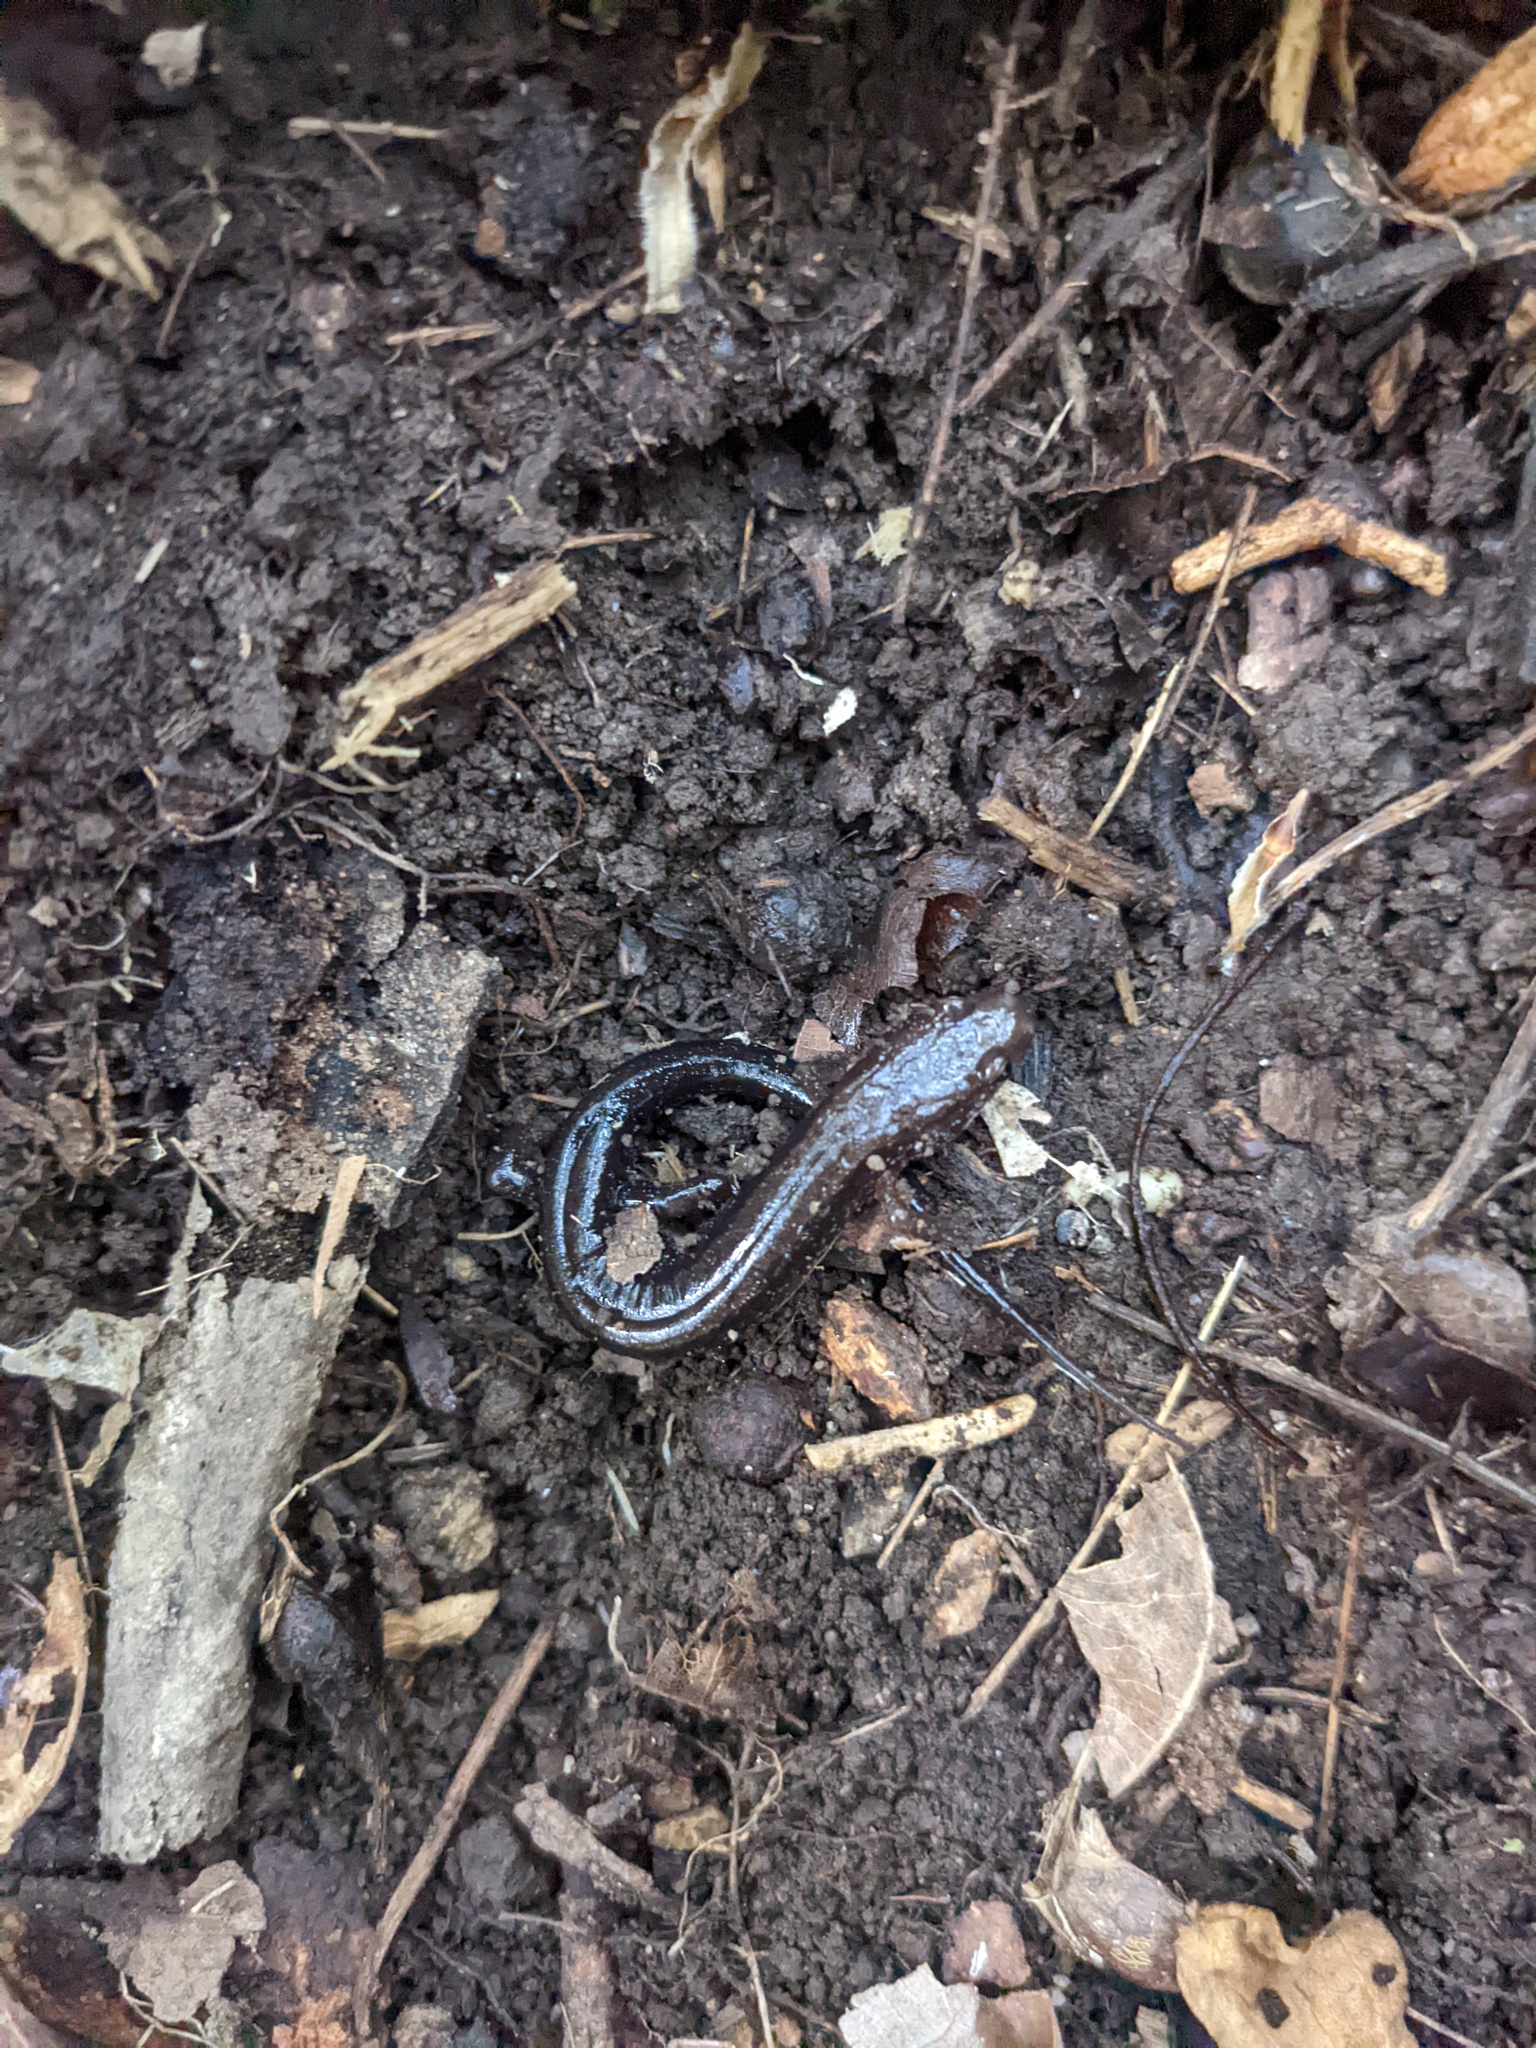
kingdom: Animalia
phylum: Chordata
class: Amphibia
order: Caudata
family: Plethodontidae
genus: Desmognathus
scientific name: Desmognathus ochrophaeus
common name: Allegheny mountain dusky salamander
